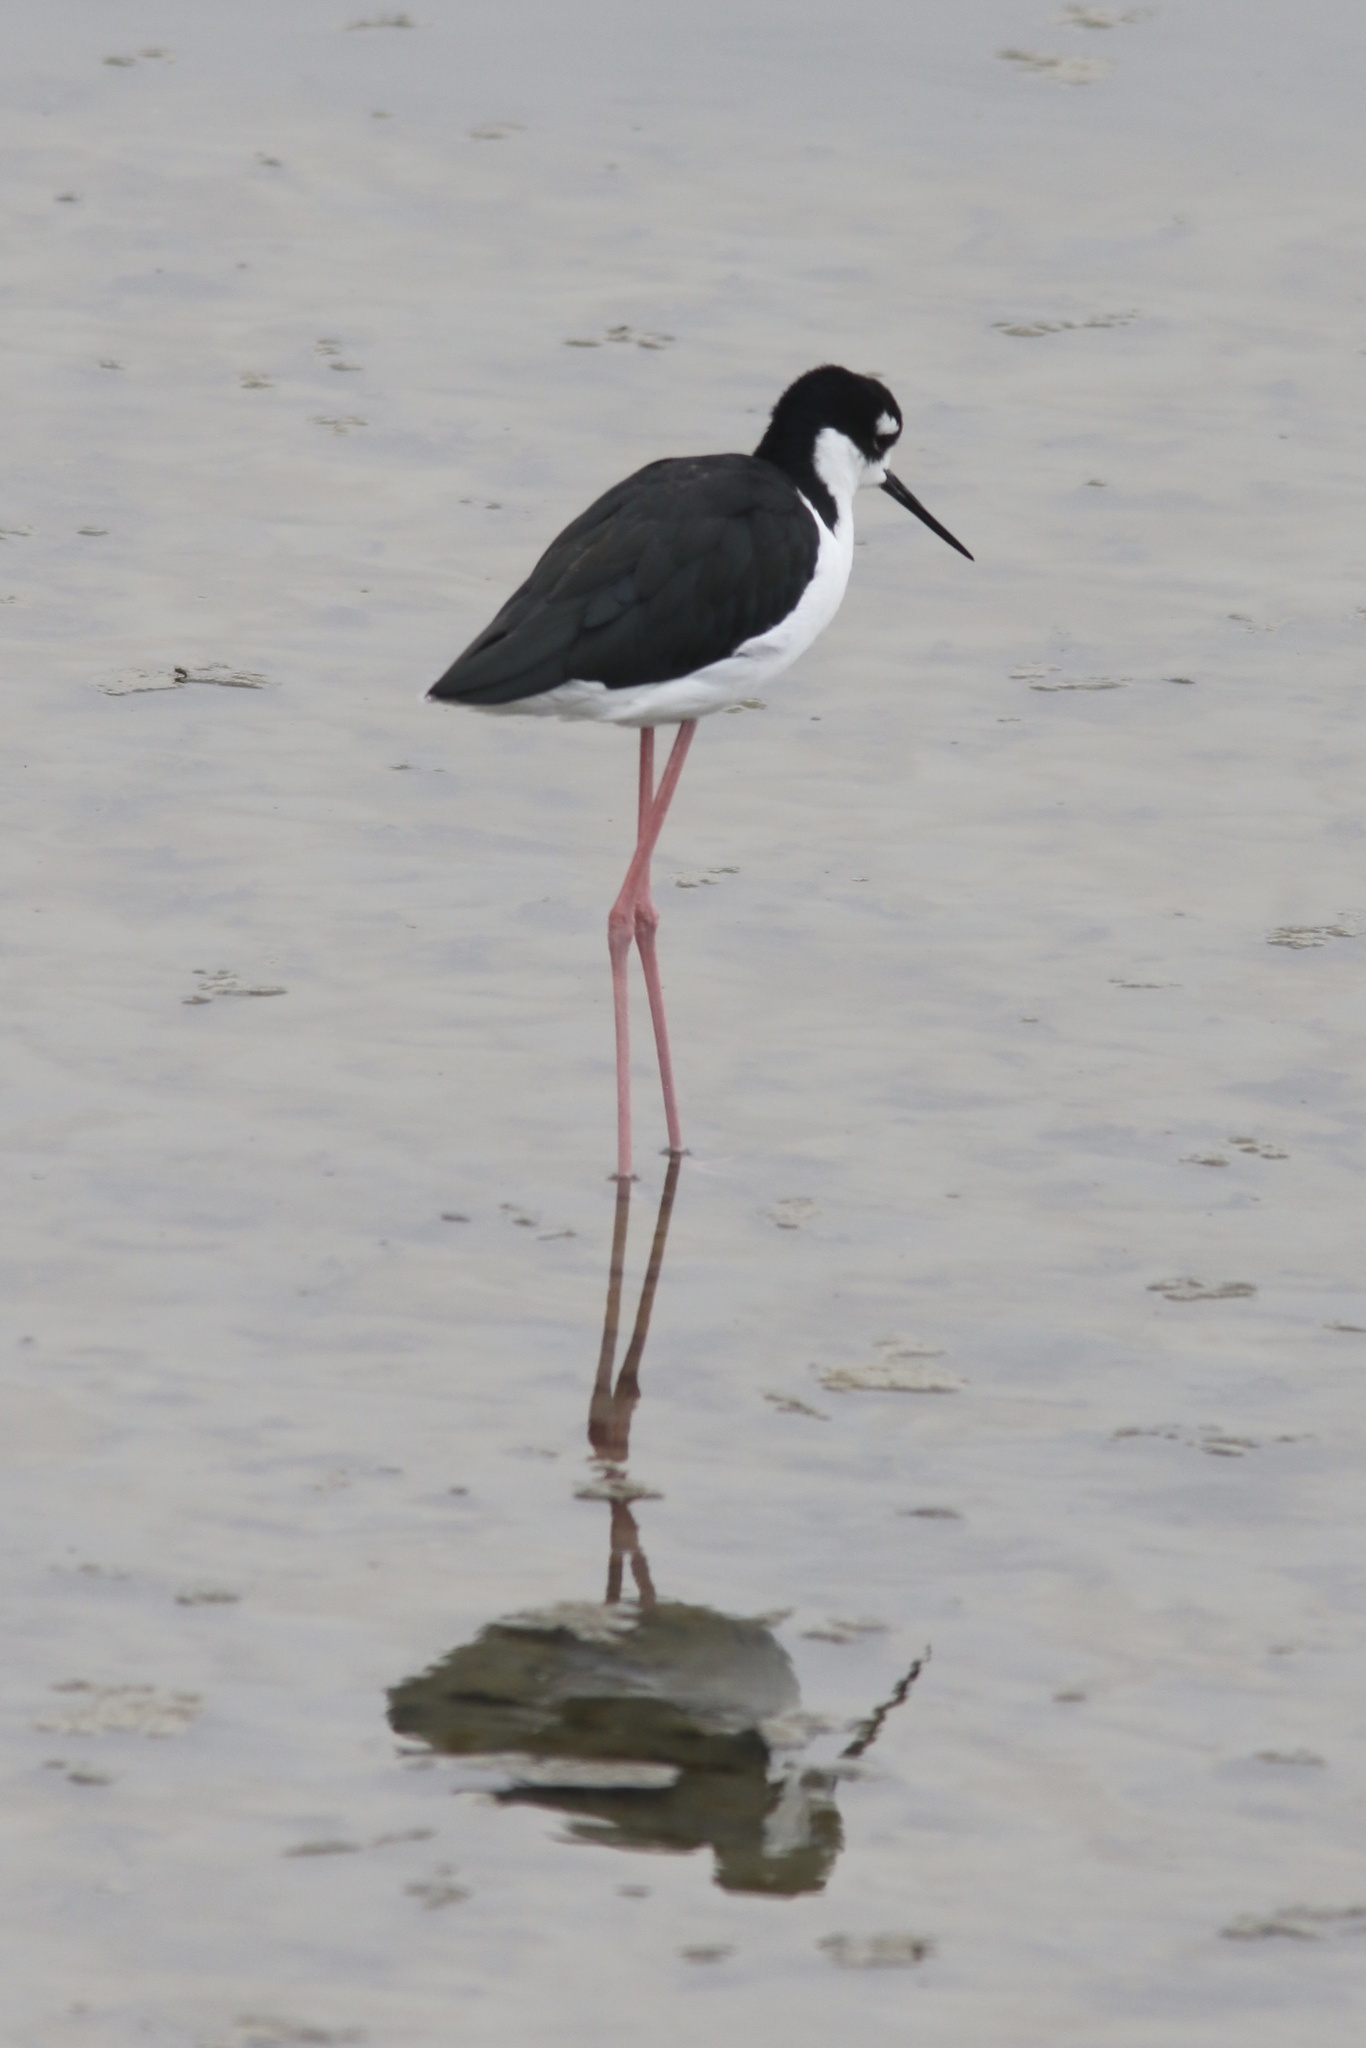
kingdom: Animalia
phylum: Chordata
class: Aves
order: Charadriiformes
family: Recurvirostridae
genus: Himantopus
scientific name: Himantopus mexicanus
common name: Black-necked stilt
